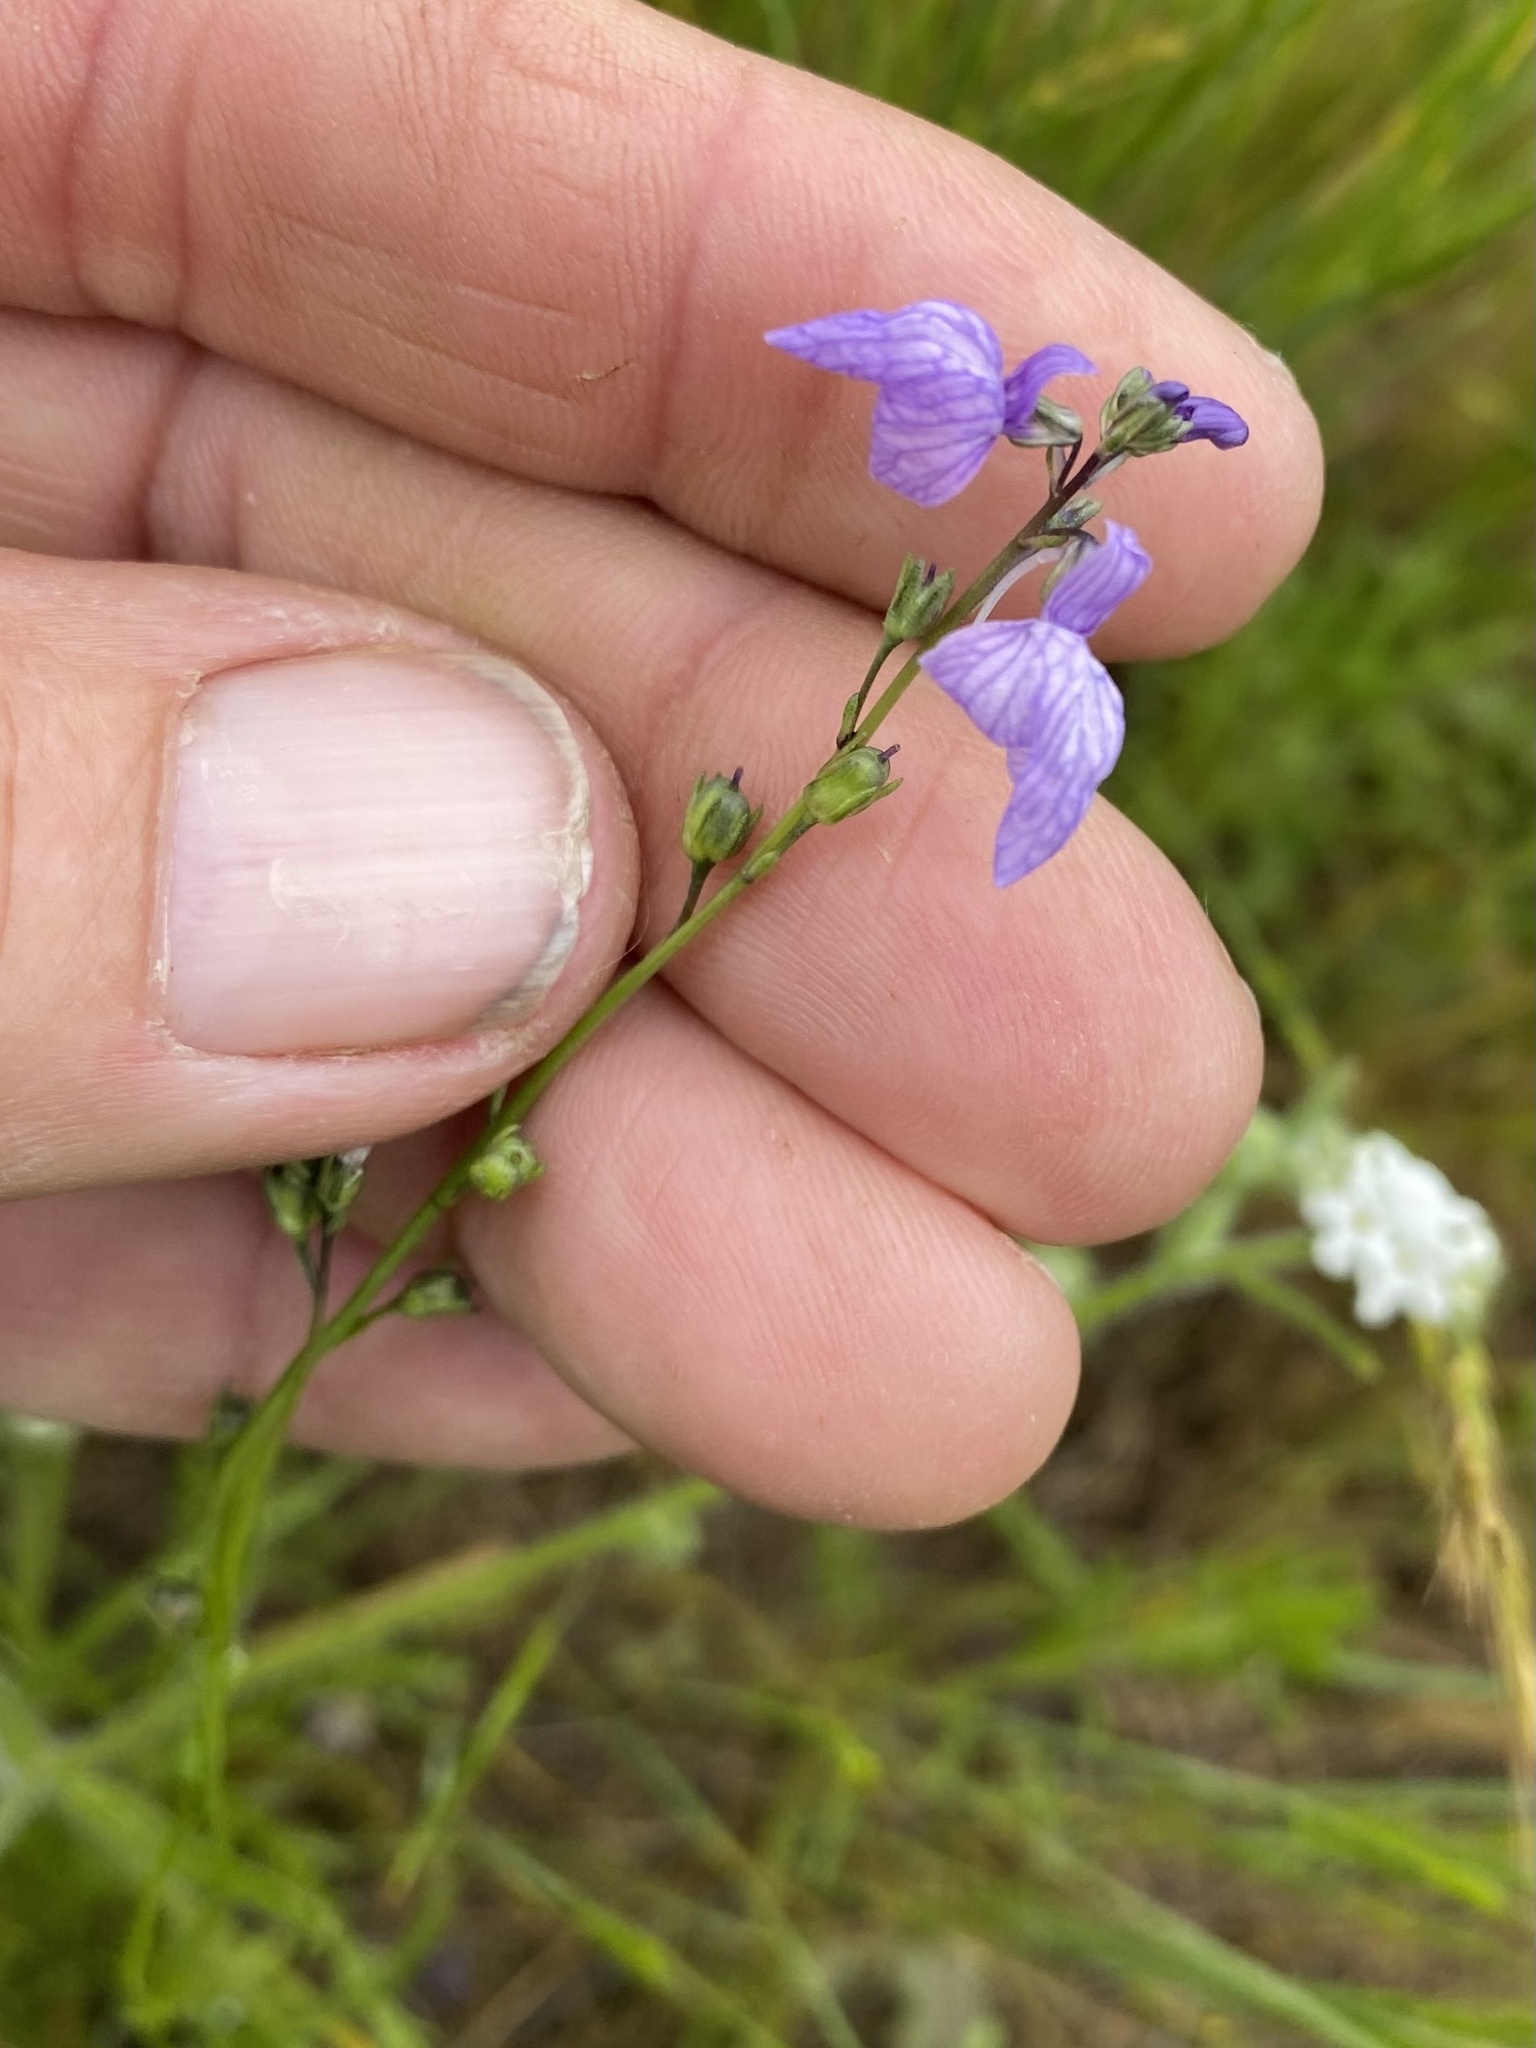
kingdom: Plantae
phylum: Tracheophyta
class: Magnoliopsida
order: Lamiales
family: Plantaginaceae
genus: Nuttallanthus
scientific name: Nuttallanthus texanus
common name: Texas toadflax
